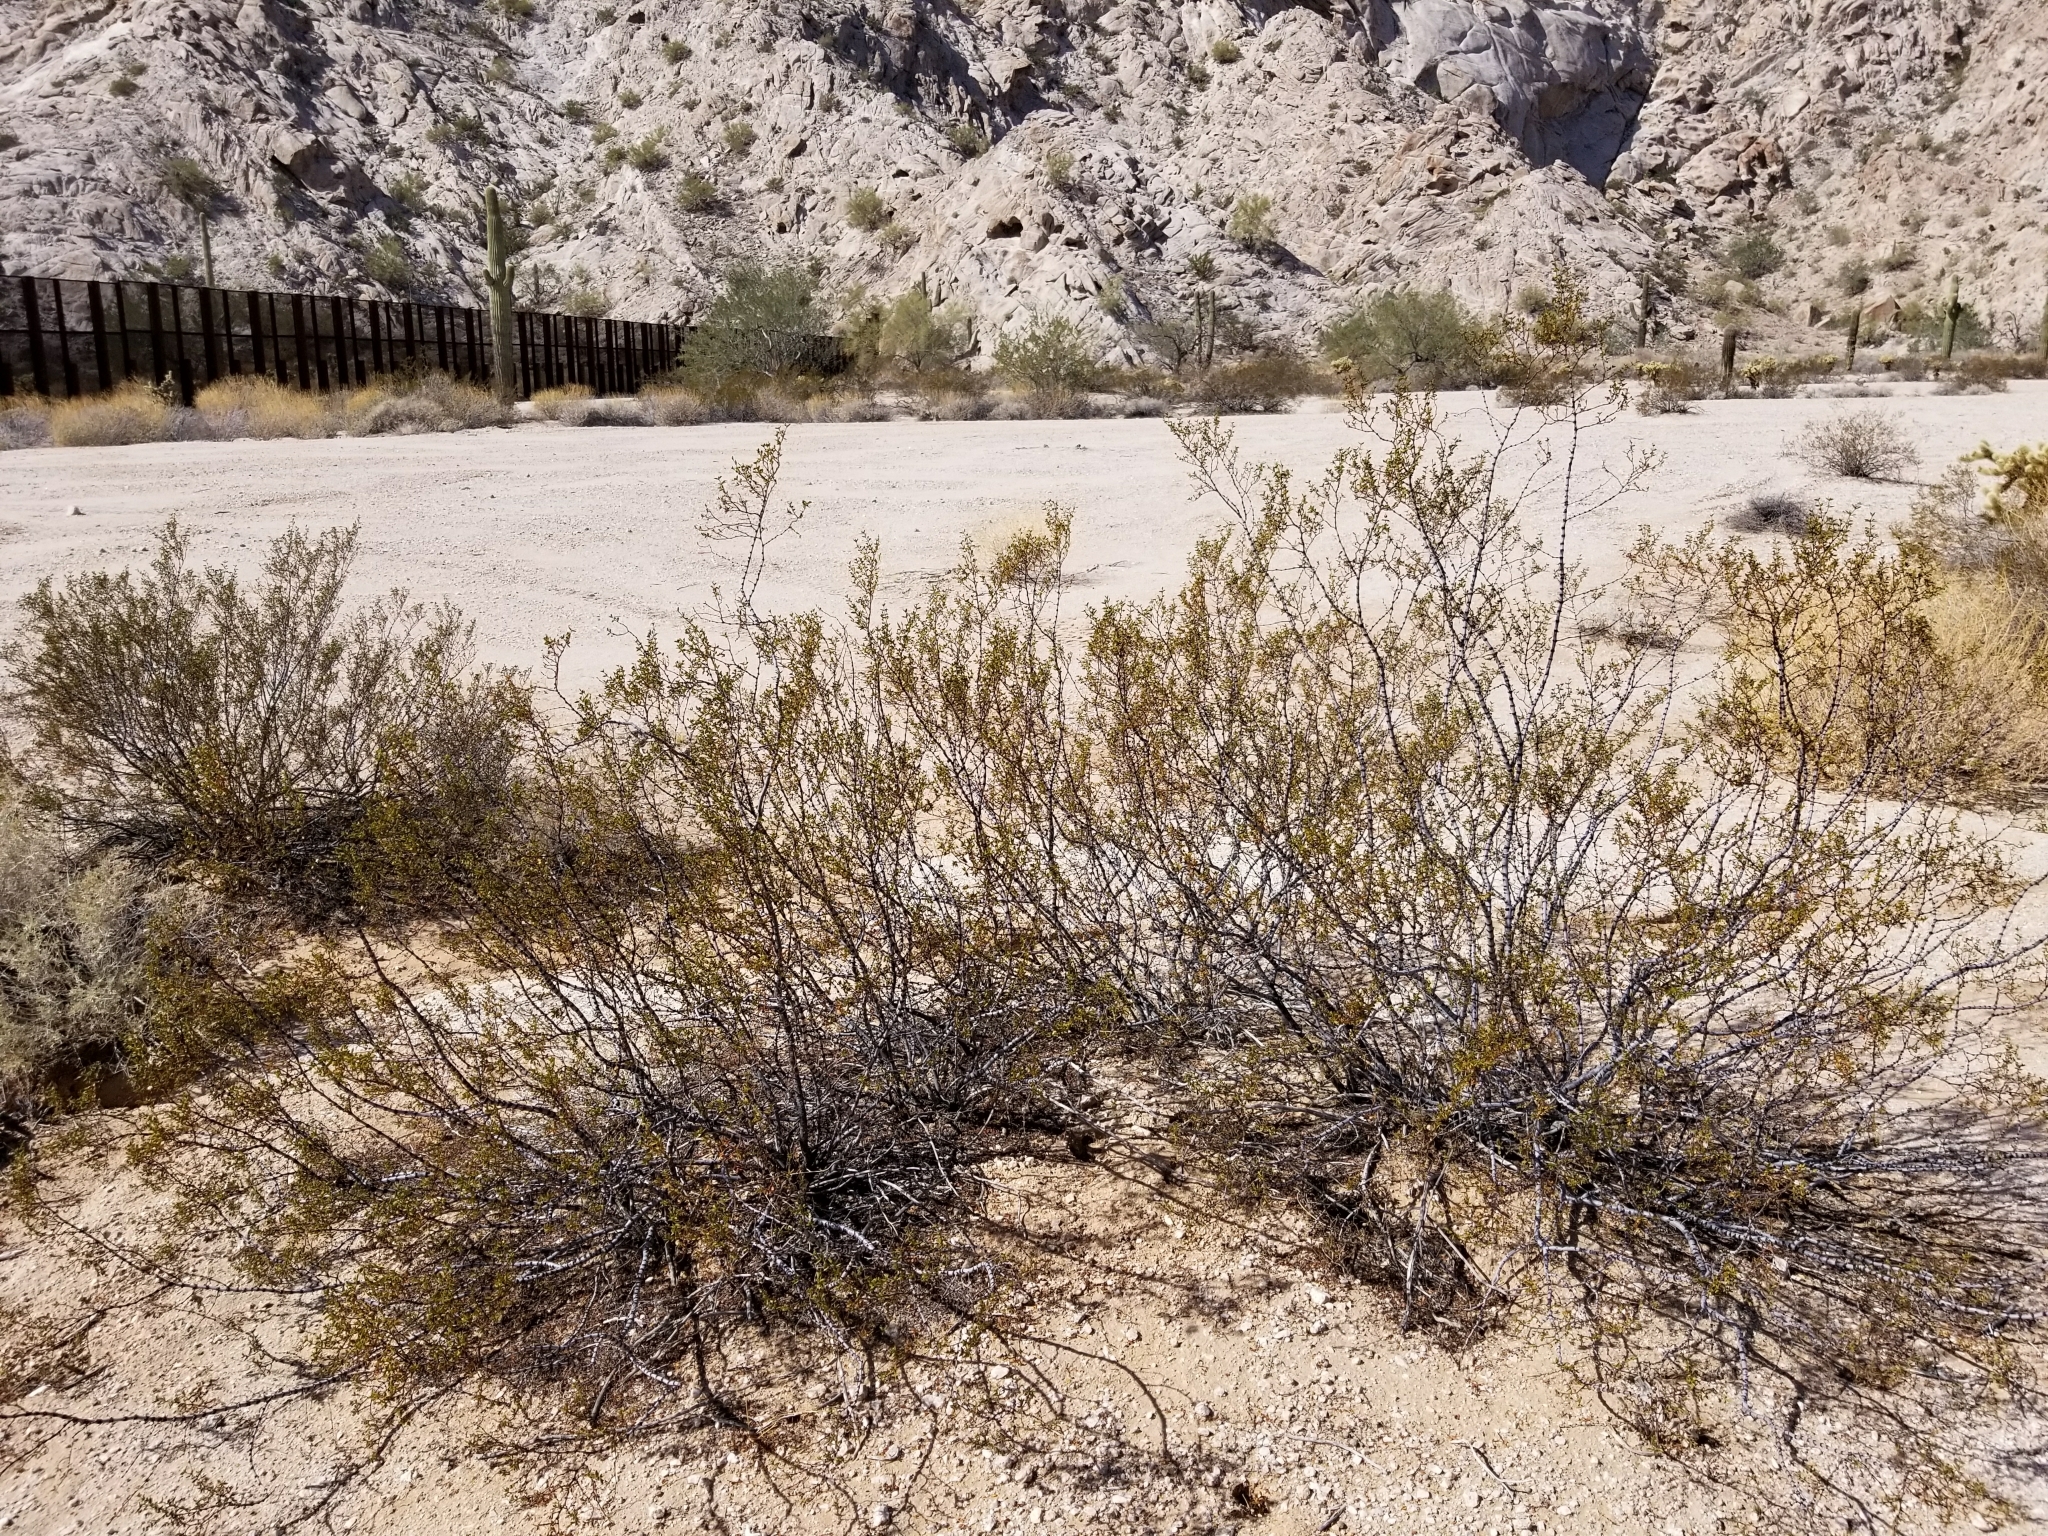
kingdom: Plantae
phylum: Tracheophyta
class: Magnoliopsida
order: Zygophyllales
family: Zygophyllaceae
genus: Larrea
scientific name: Larrea tridentata
